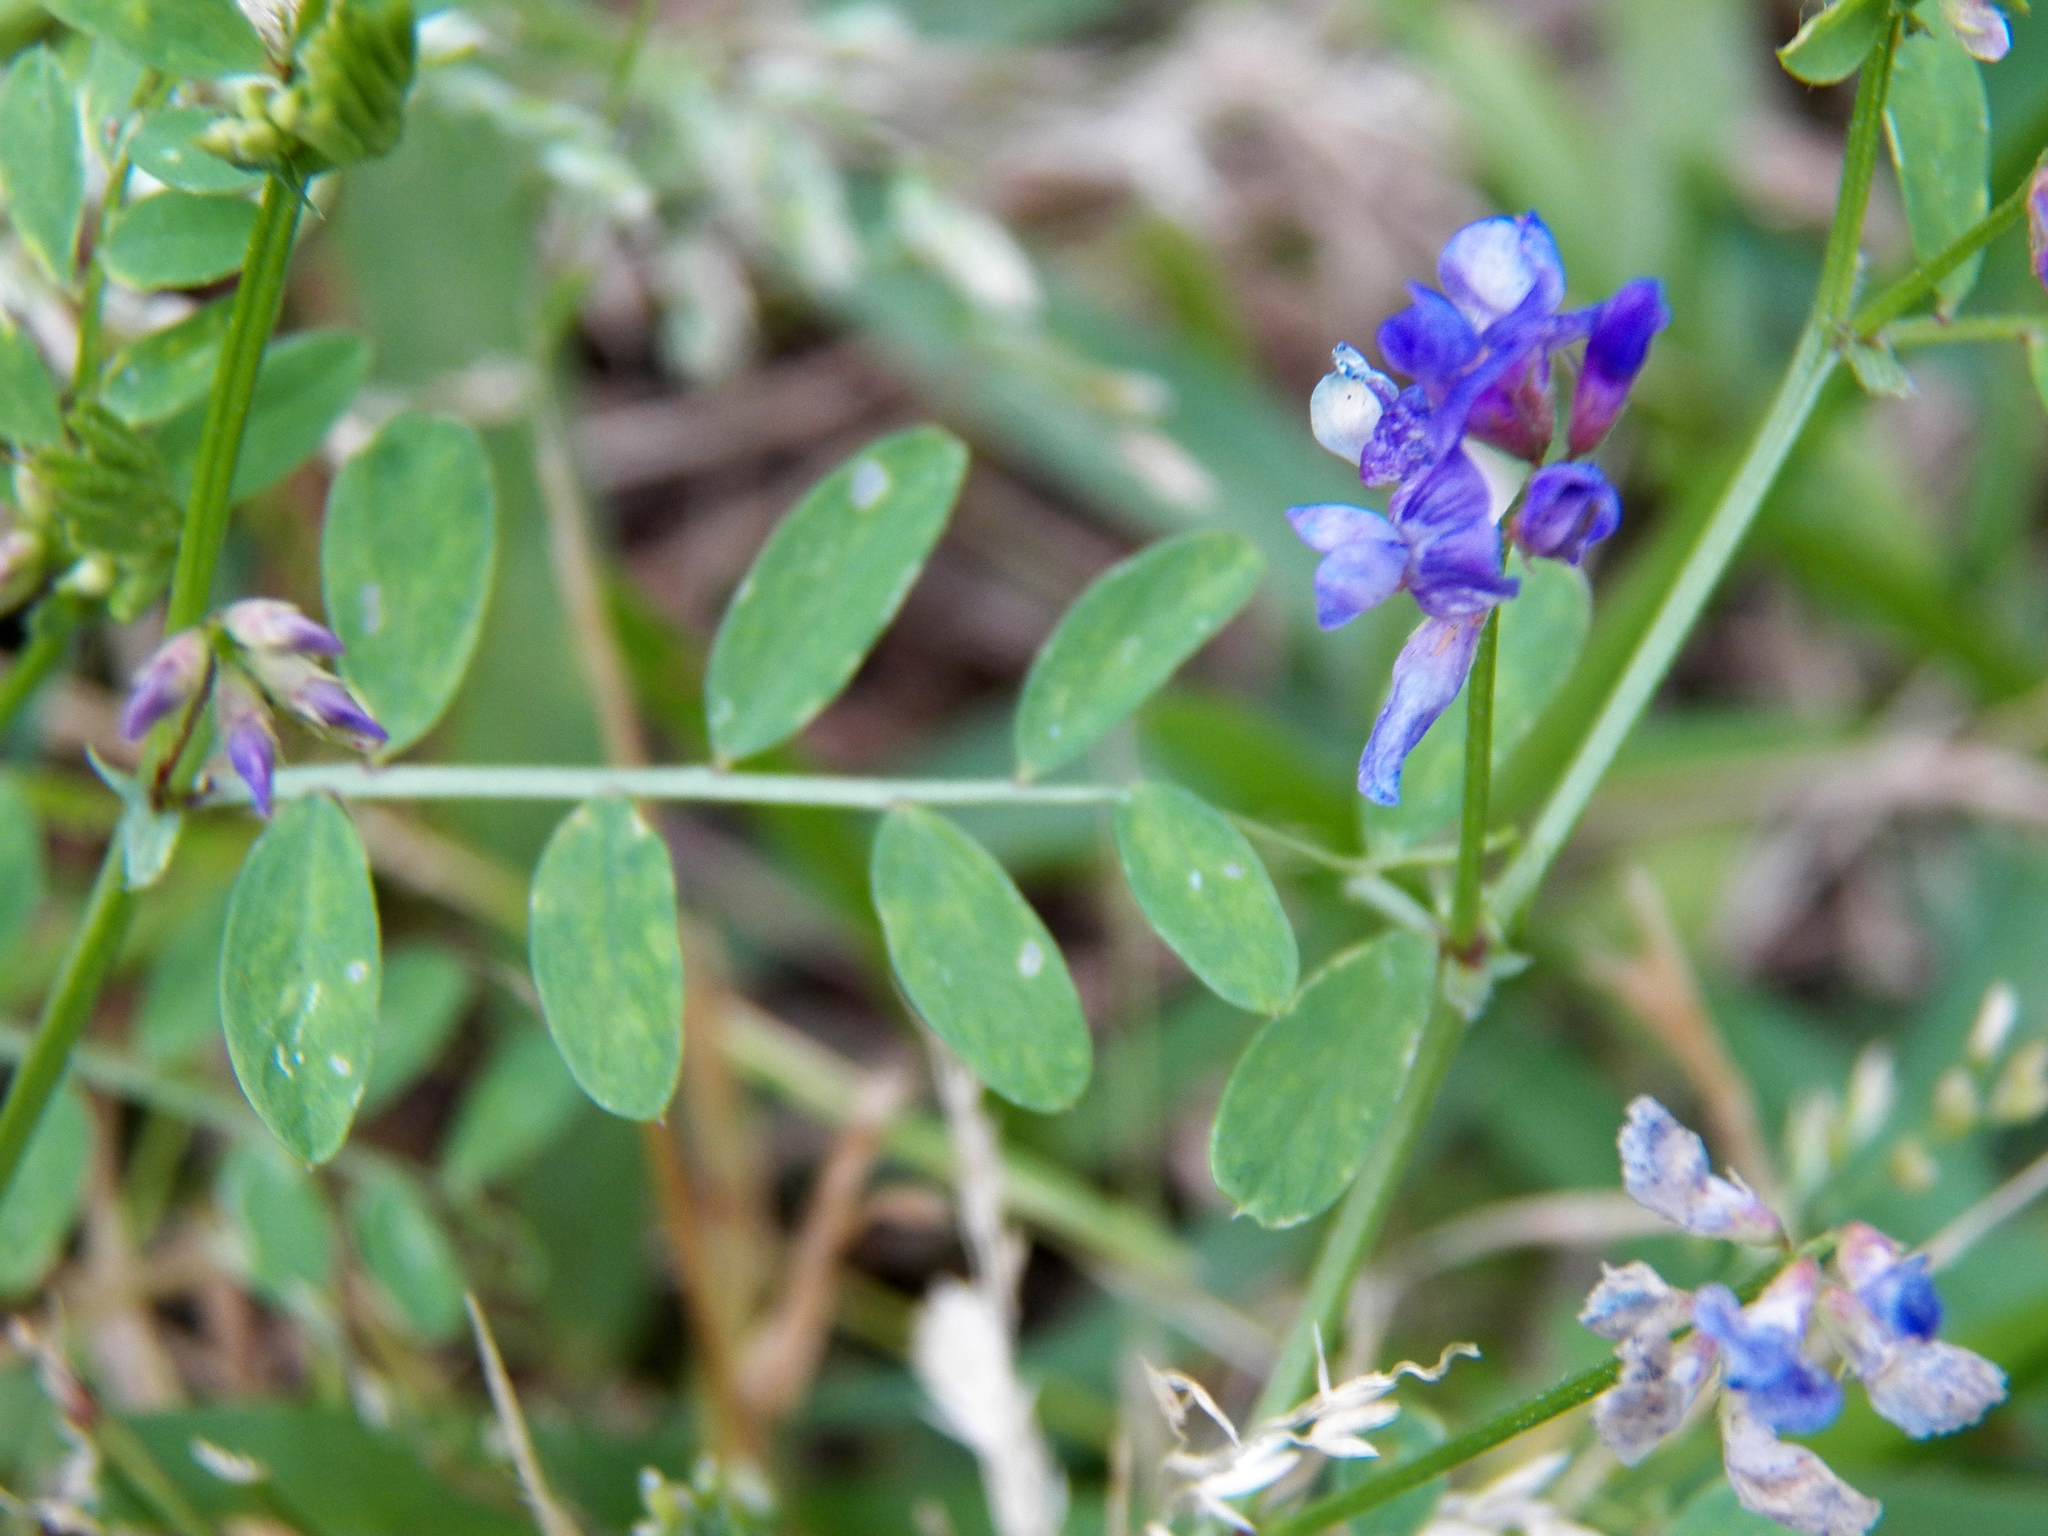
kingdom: Plantae
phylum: Tracheophyta
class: Magnoliopsida
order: Fabales
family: Fabaceae
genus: Vicia
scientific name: Vicia ludoviciana
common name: Louisiana vetch
